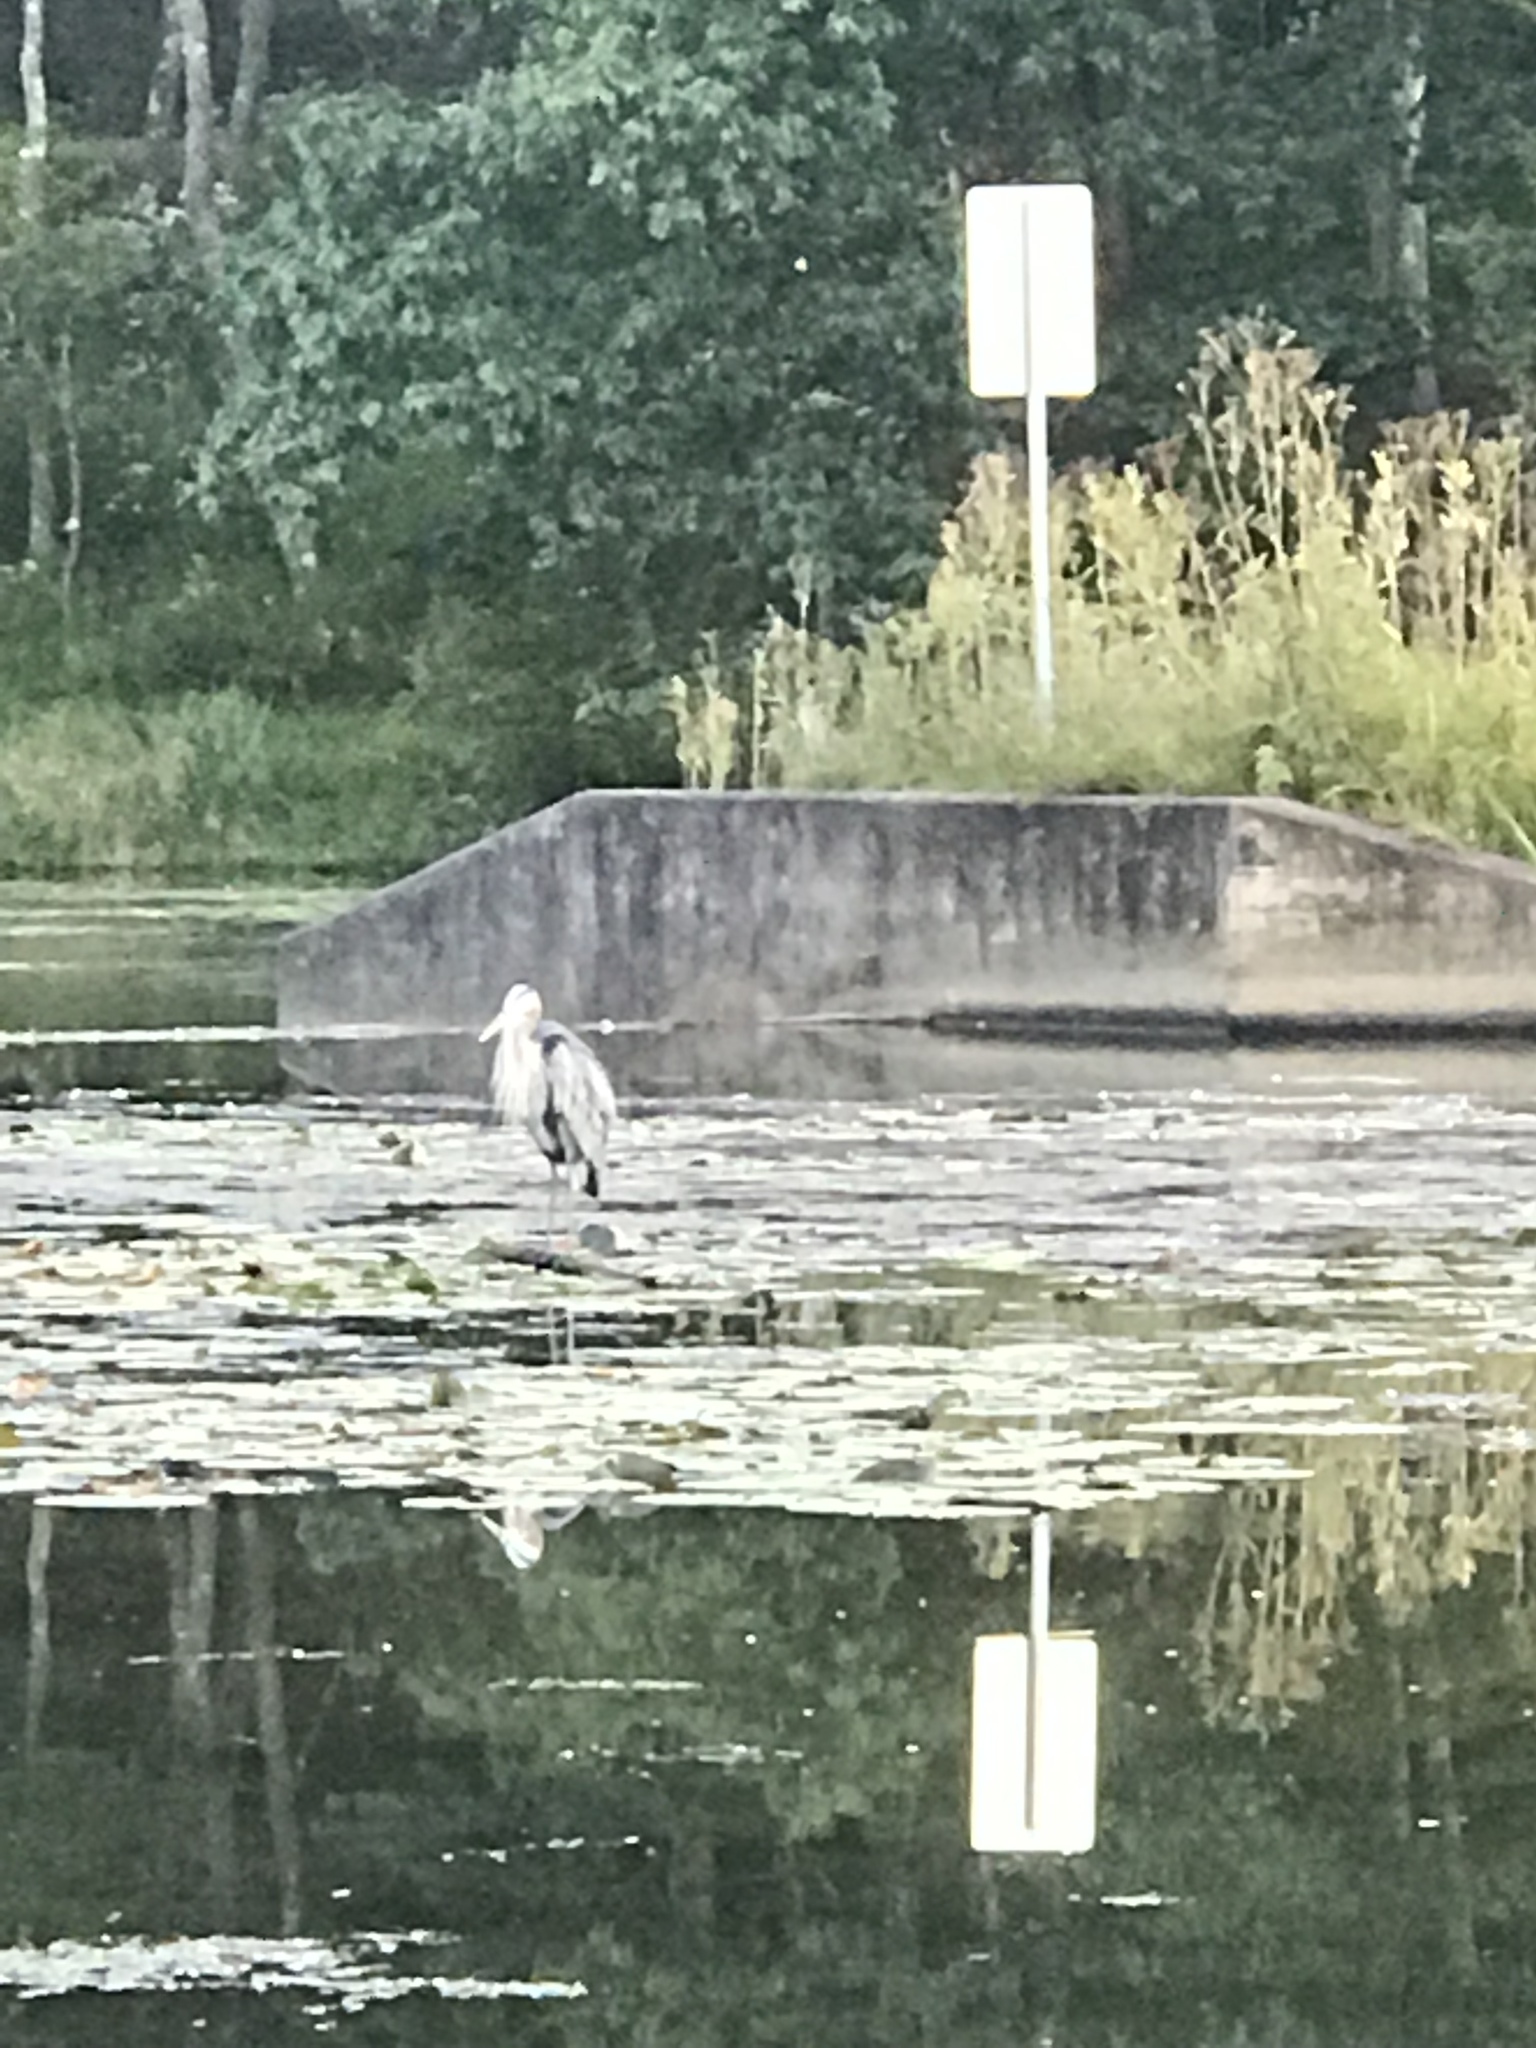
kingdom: Animalia
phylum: Chordata
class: Aves
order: Pelecaniformes
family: Ardeidae
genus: Ardea
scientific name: Ardea herodias
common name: Great blue heron
